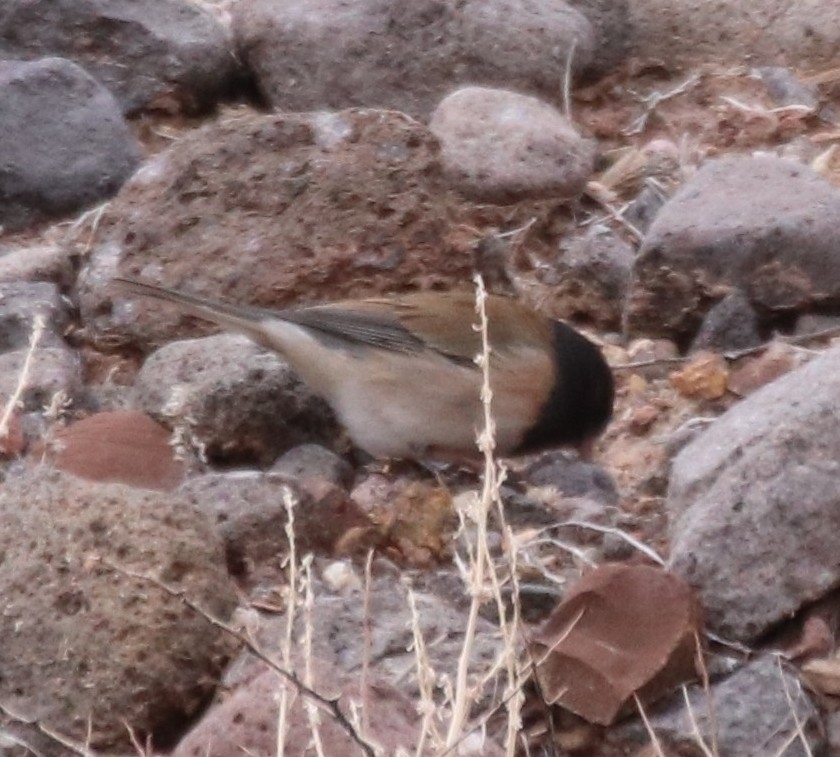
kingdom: Animalia
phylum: Chordata
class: Aves
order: Passeriformes
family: Passerellidae
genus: Junco
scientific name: Junco hyemalis
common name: Dark-eyed junco
